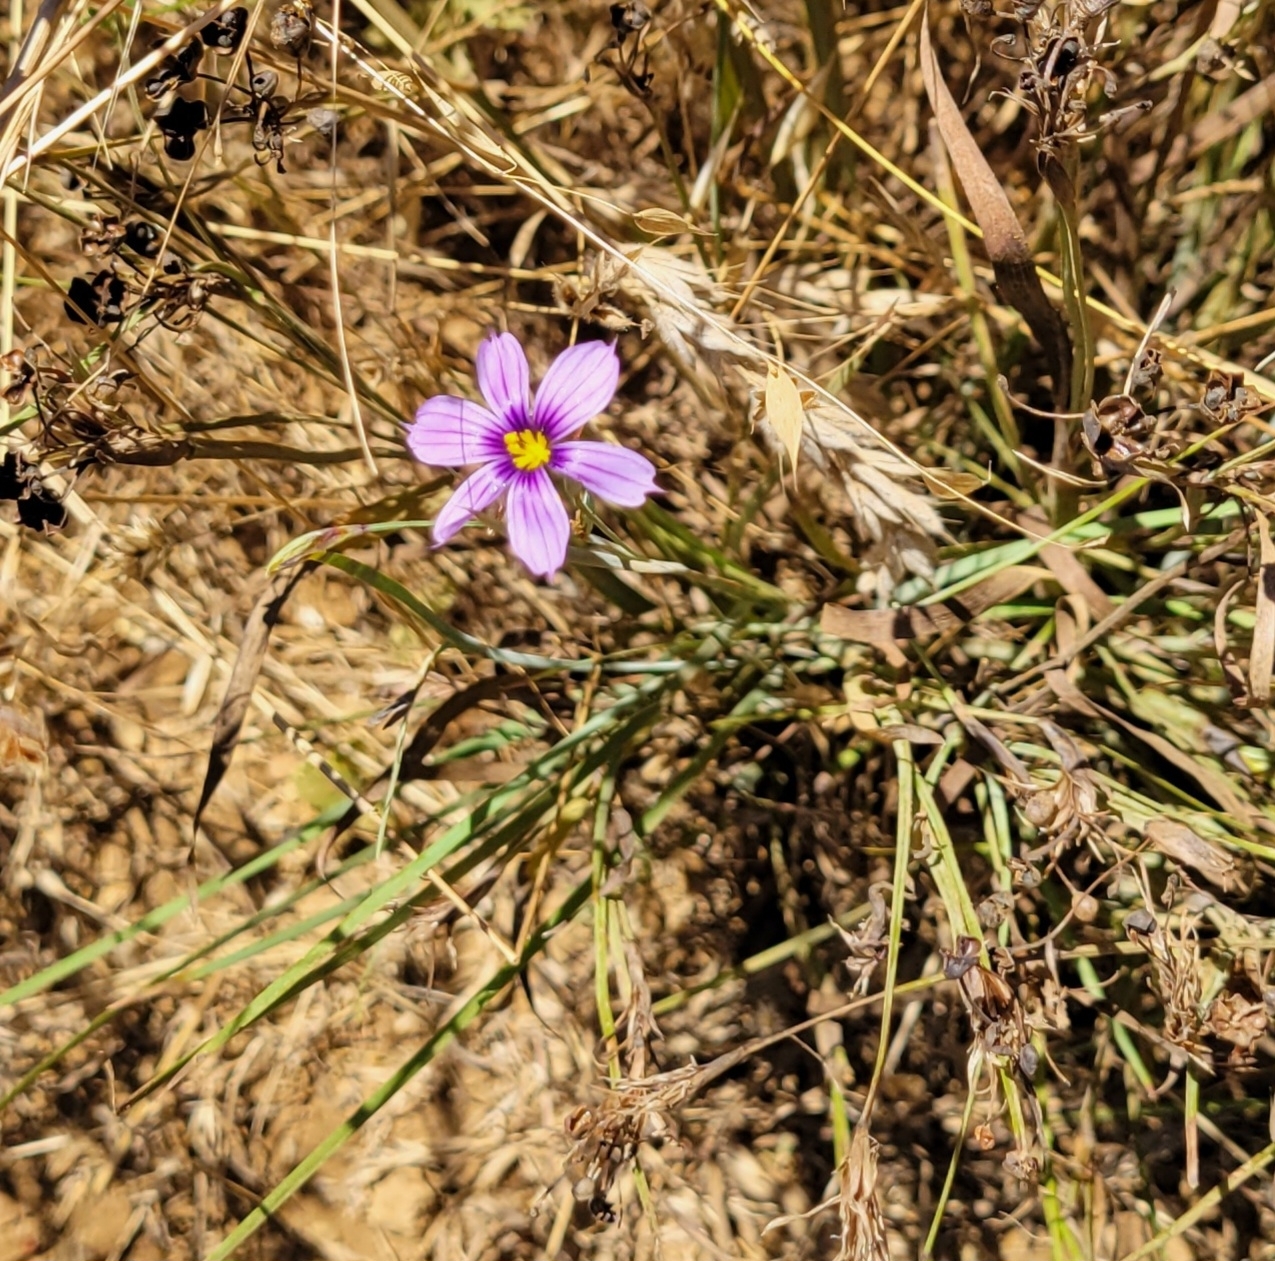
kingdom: Plantae
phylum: Tracheophyta
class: Liliopsida
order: Asparagales
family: Iridaceae
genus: Sisyrinchium
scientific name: Sisyrinchium bellum
